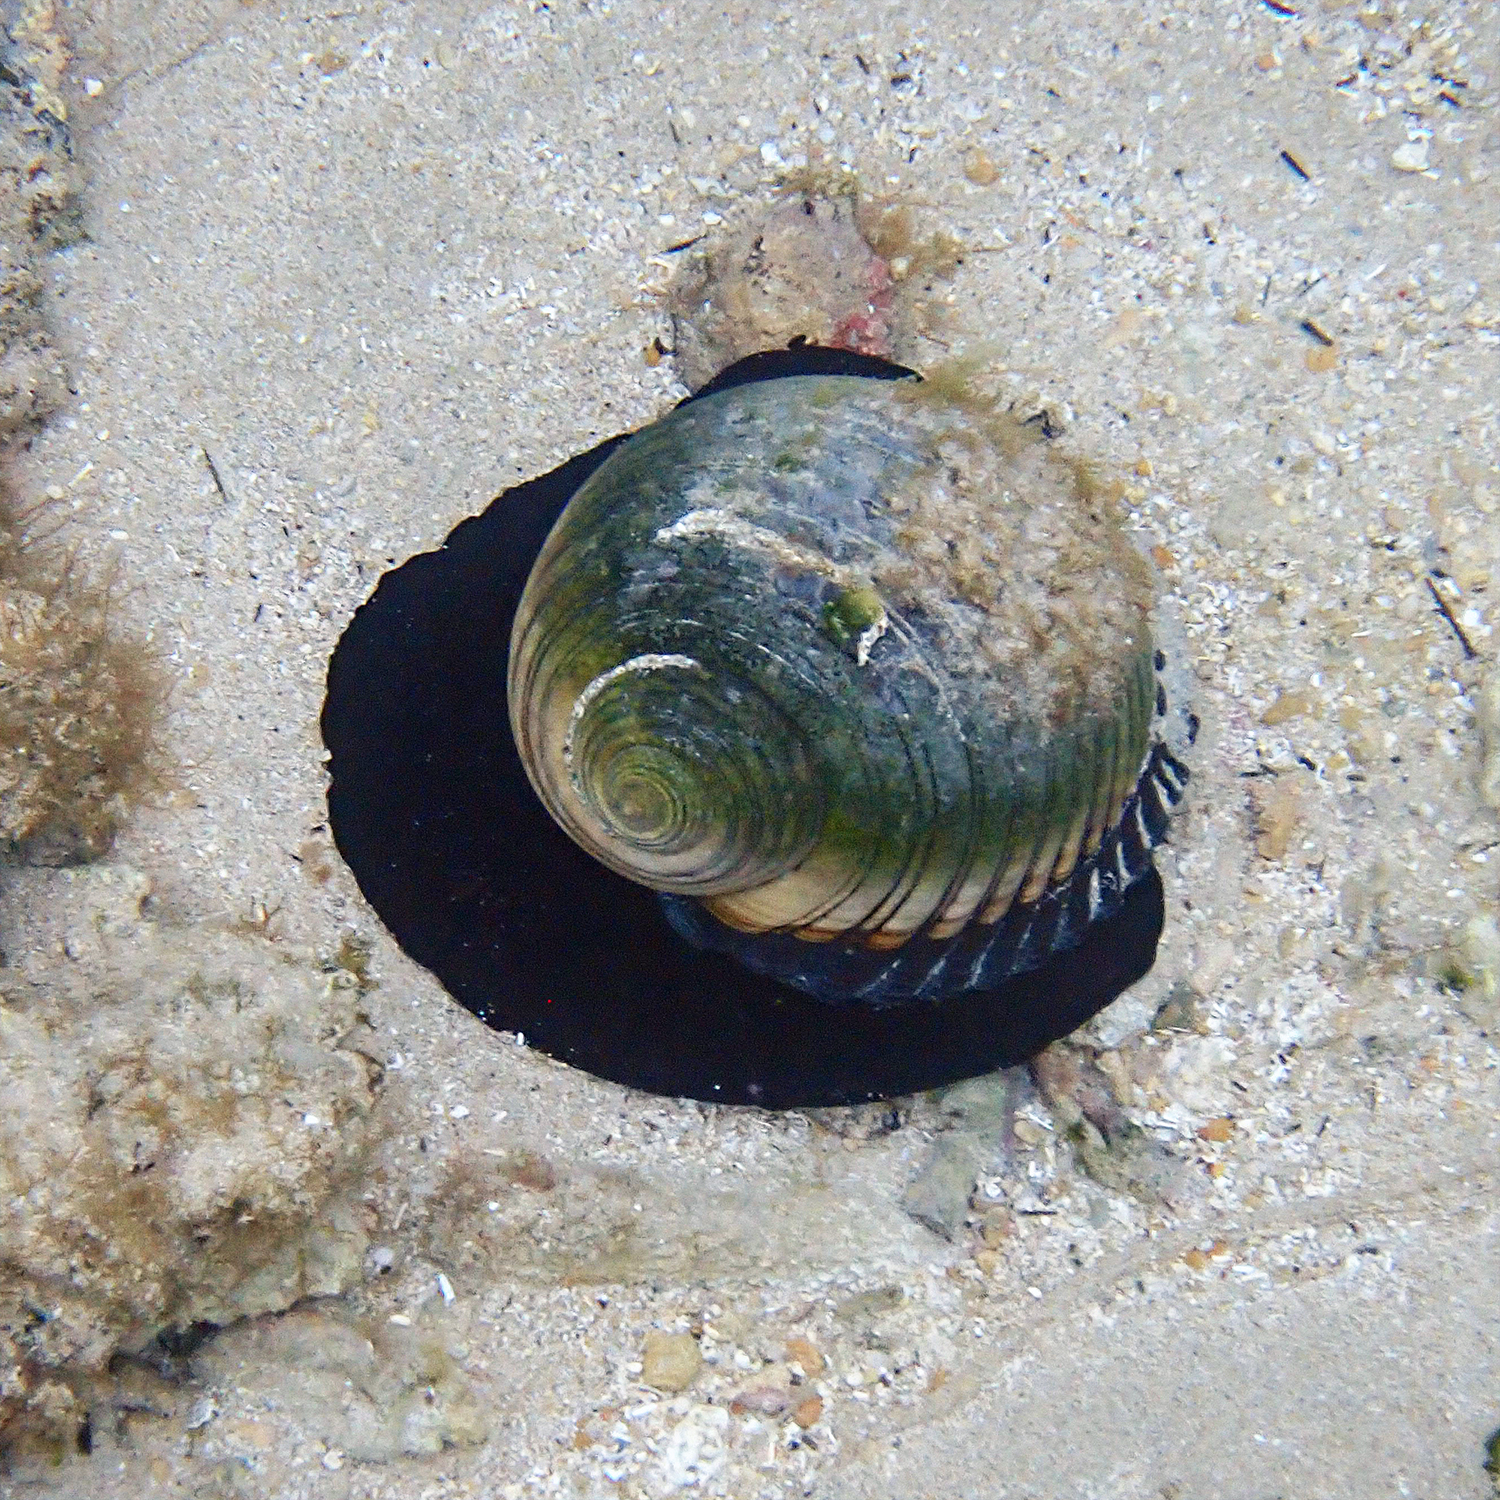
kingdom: Animalia
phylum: Mollusca
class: Gastropoda
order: Littorinimorpha
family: Tonnidae
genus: Tonna
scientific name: Tonna melanostoma
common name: Black mouthed tun
